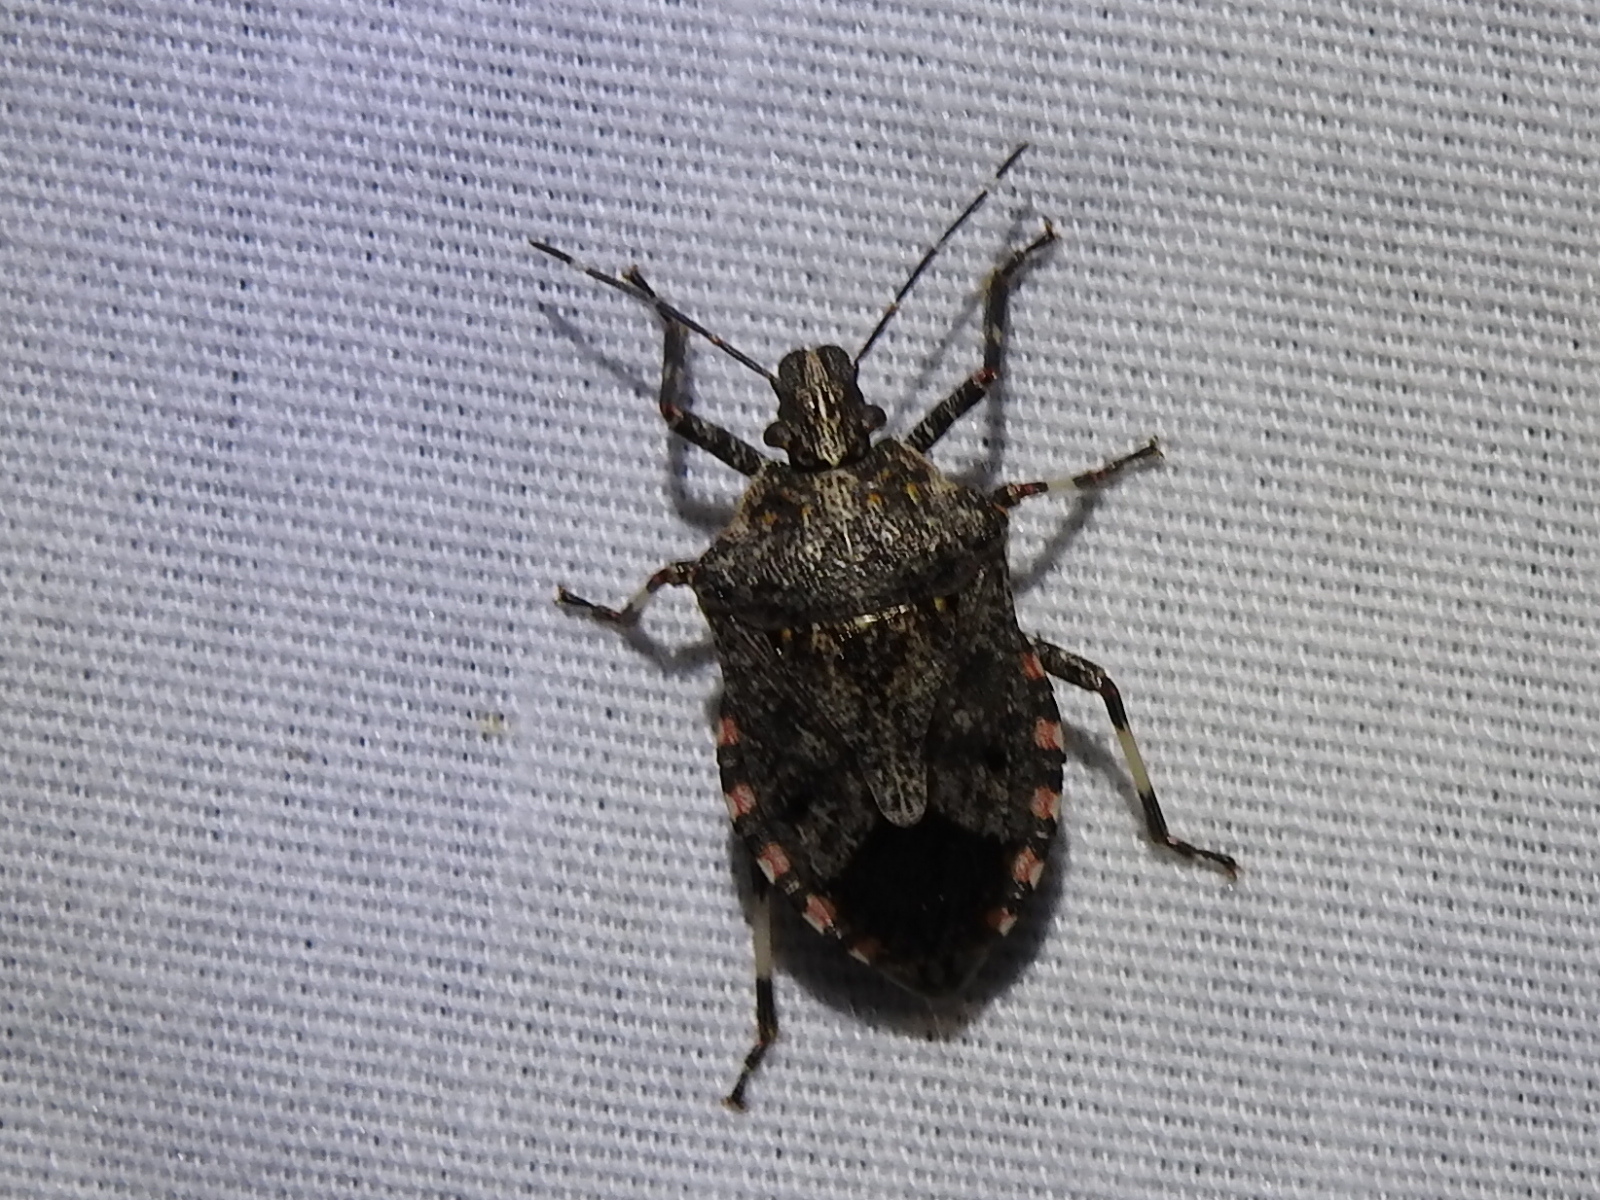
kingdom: Animalia
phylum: Arthropoda
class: Insecta
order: Hemiptera
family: Pentatomidae
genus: Apateticus
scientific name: Apateticus lineolatus
